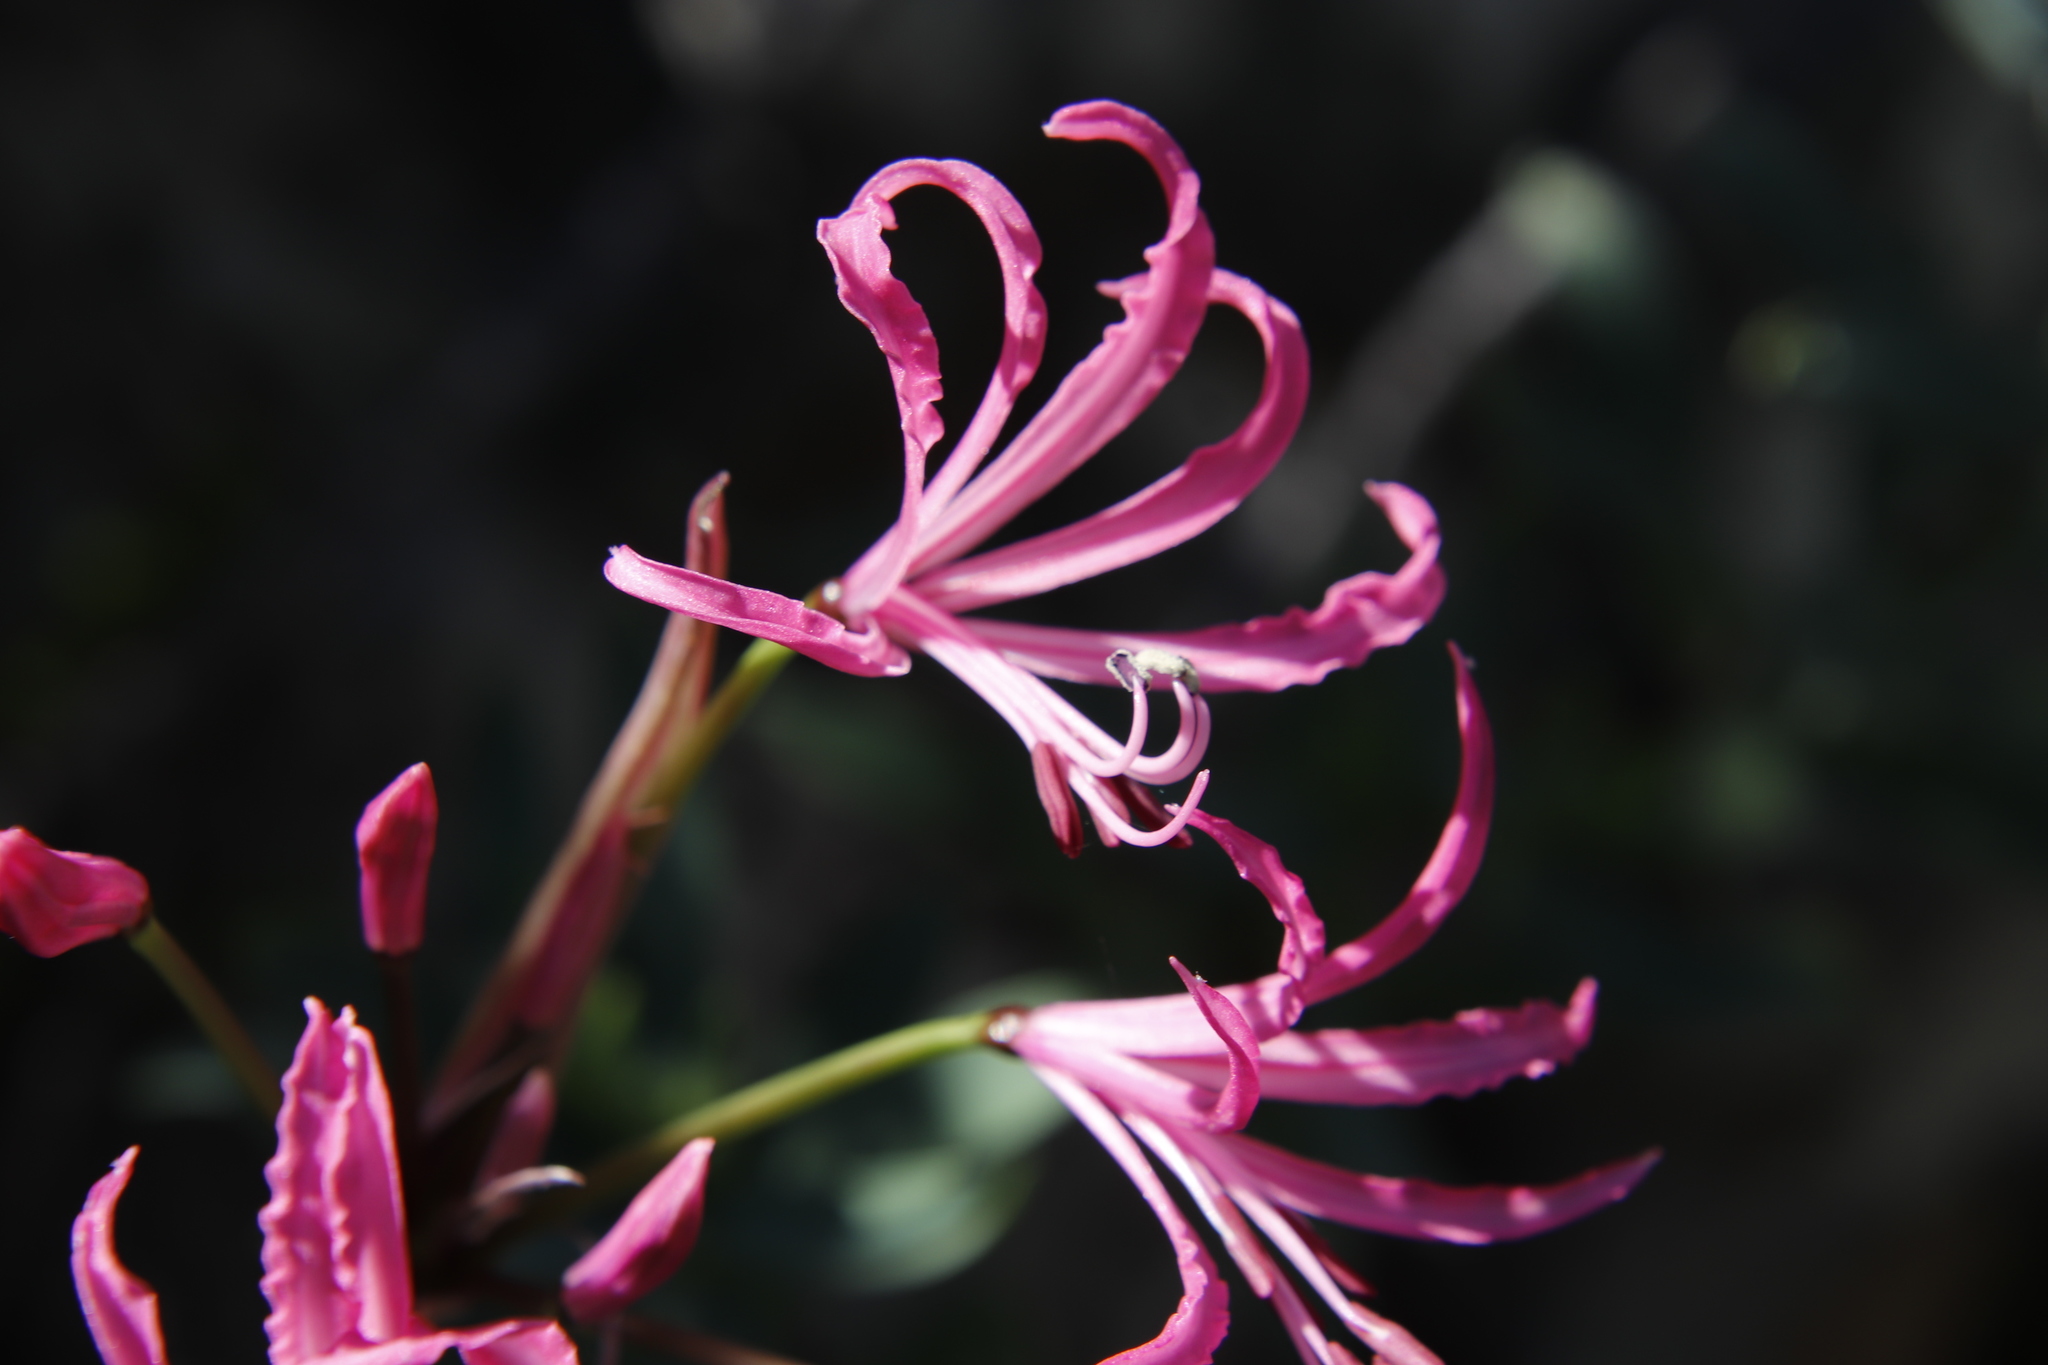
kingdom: Plantae
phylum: Tracheophyta
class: Liliopsida
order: Asparagales
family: Amaryllidaceae
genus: Nerine
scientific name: Nerine humilis
